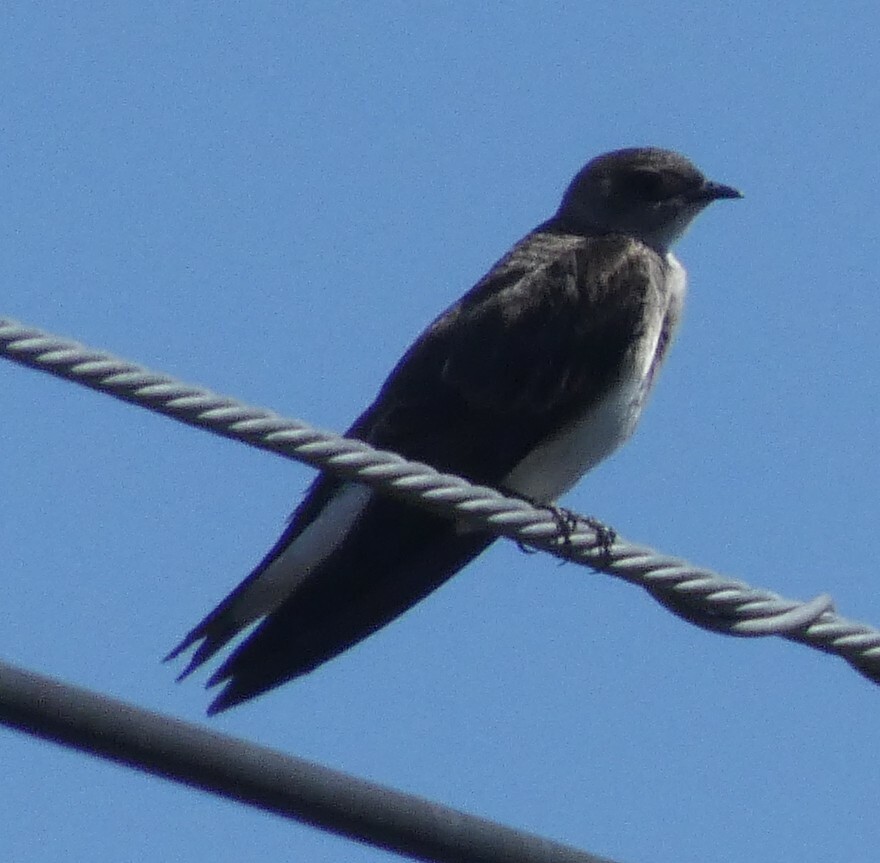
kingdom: Animalia
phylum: Chordata
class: Aves
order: Passeriformes
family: Hirundinidae
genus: Progne
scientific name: Progne tapera
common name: Brown-chested martin
